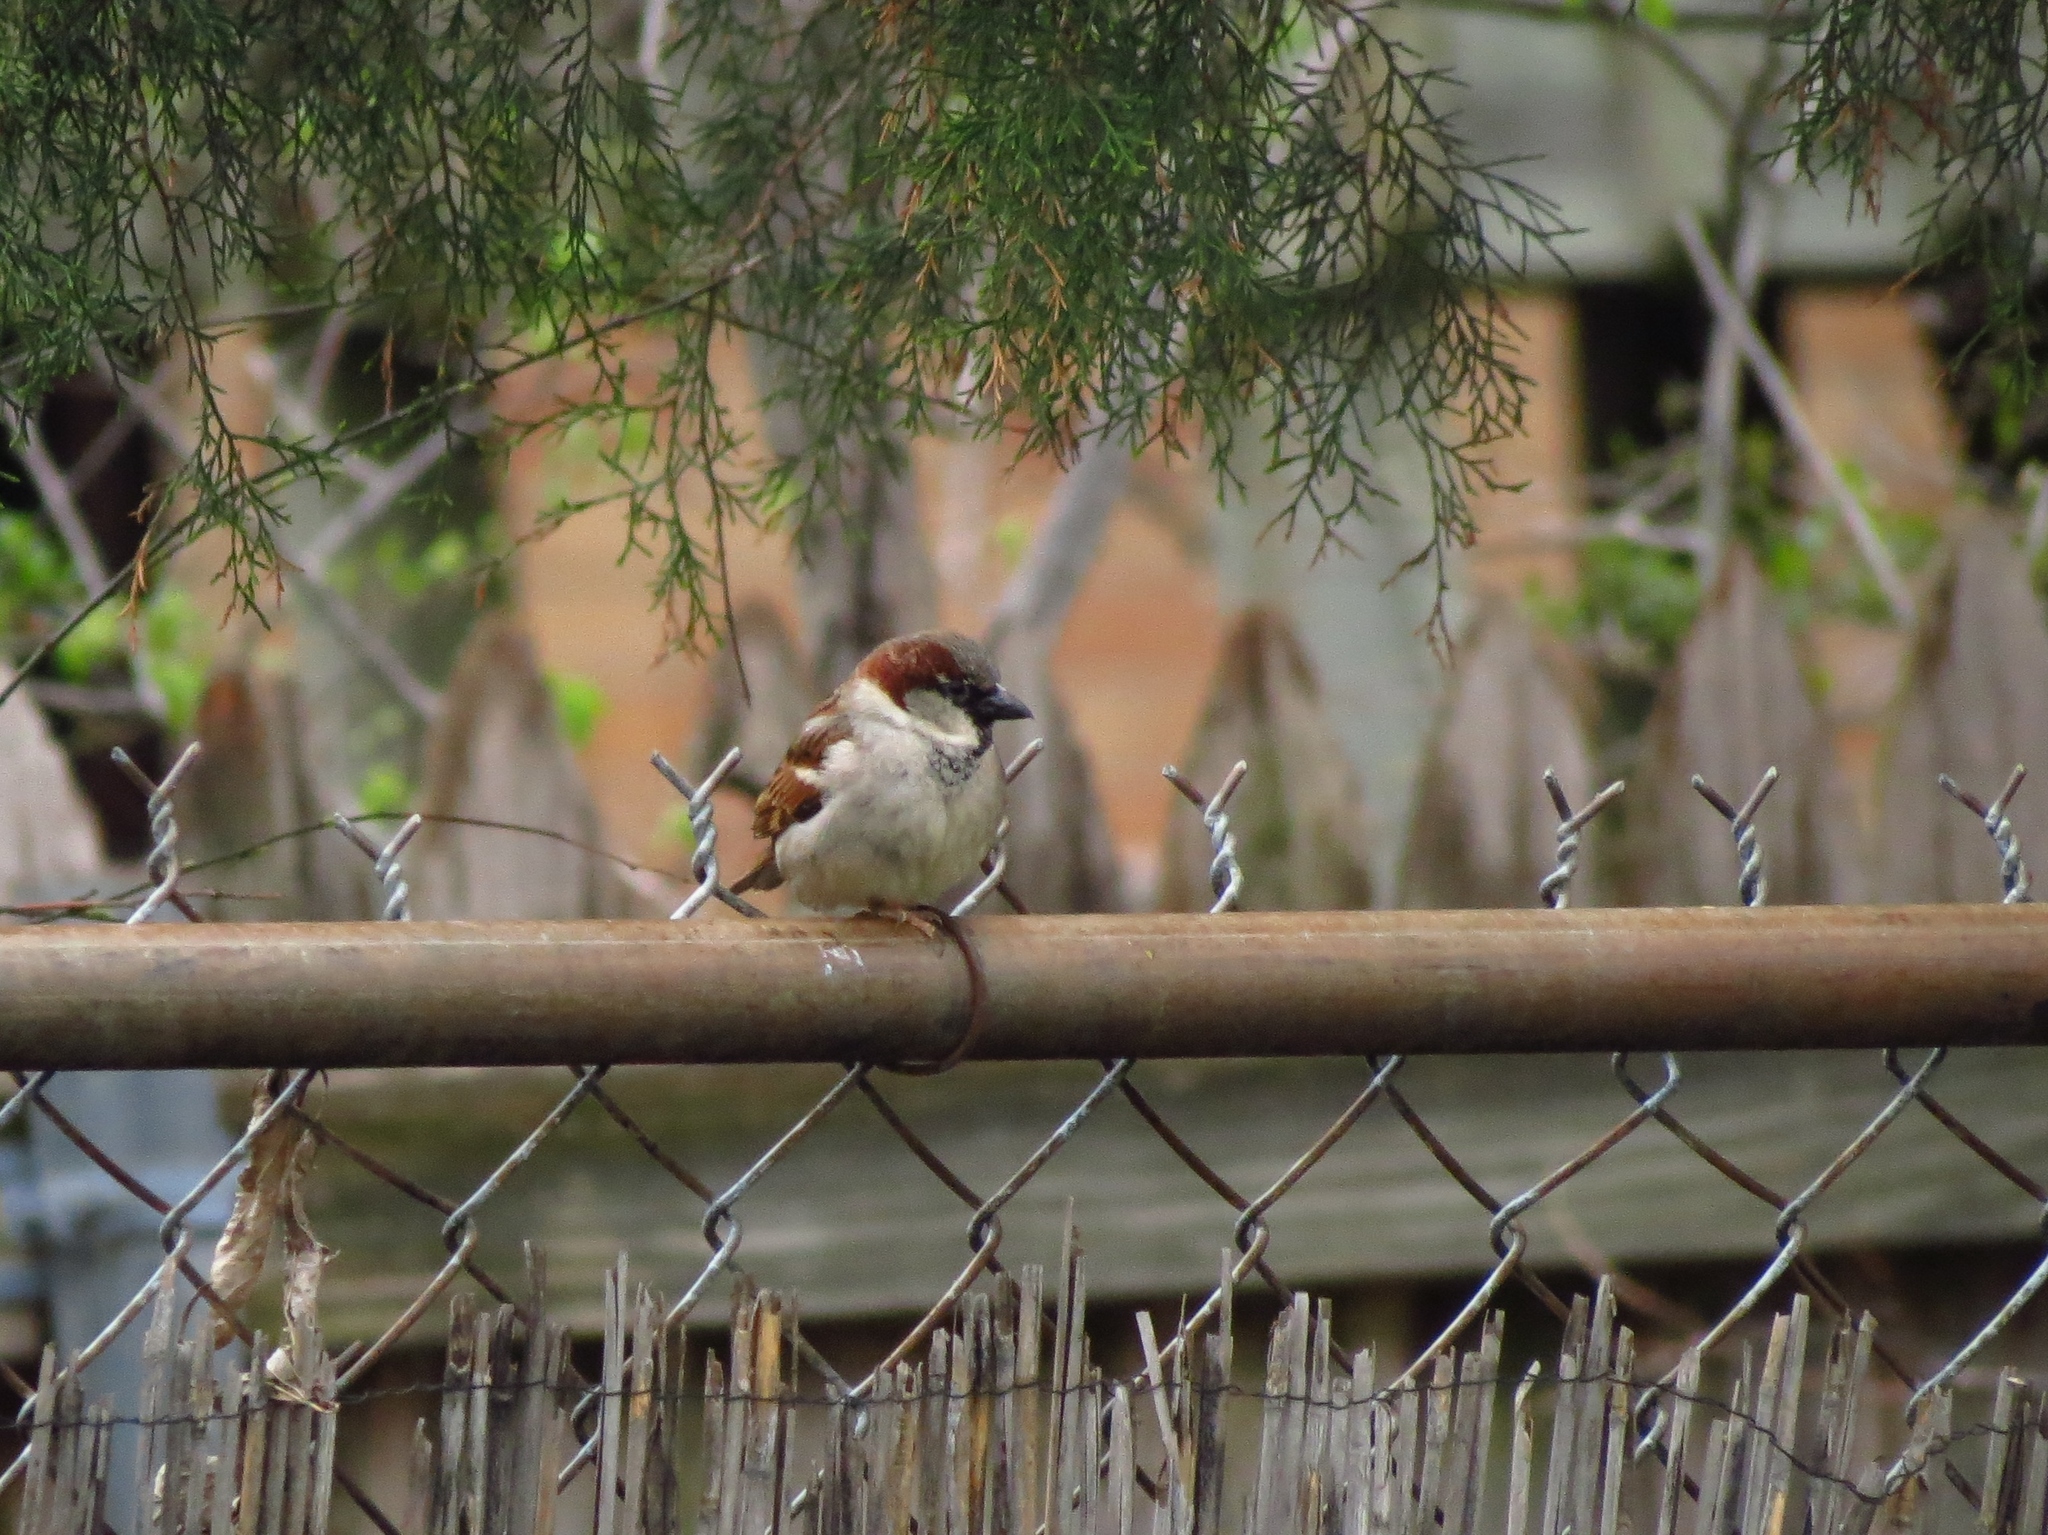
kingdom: Animalia
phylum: Chordata
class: Aves
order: Passeriformes
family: Passeridae
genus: Passer
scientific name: Passer domesticus
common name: House sparrow
